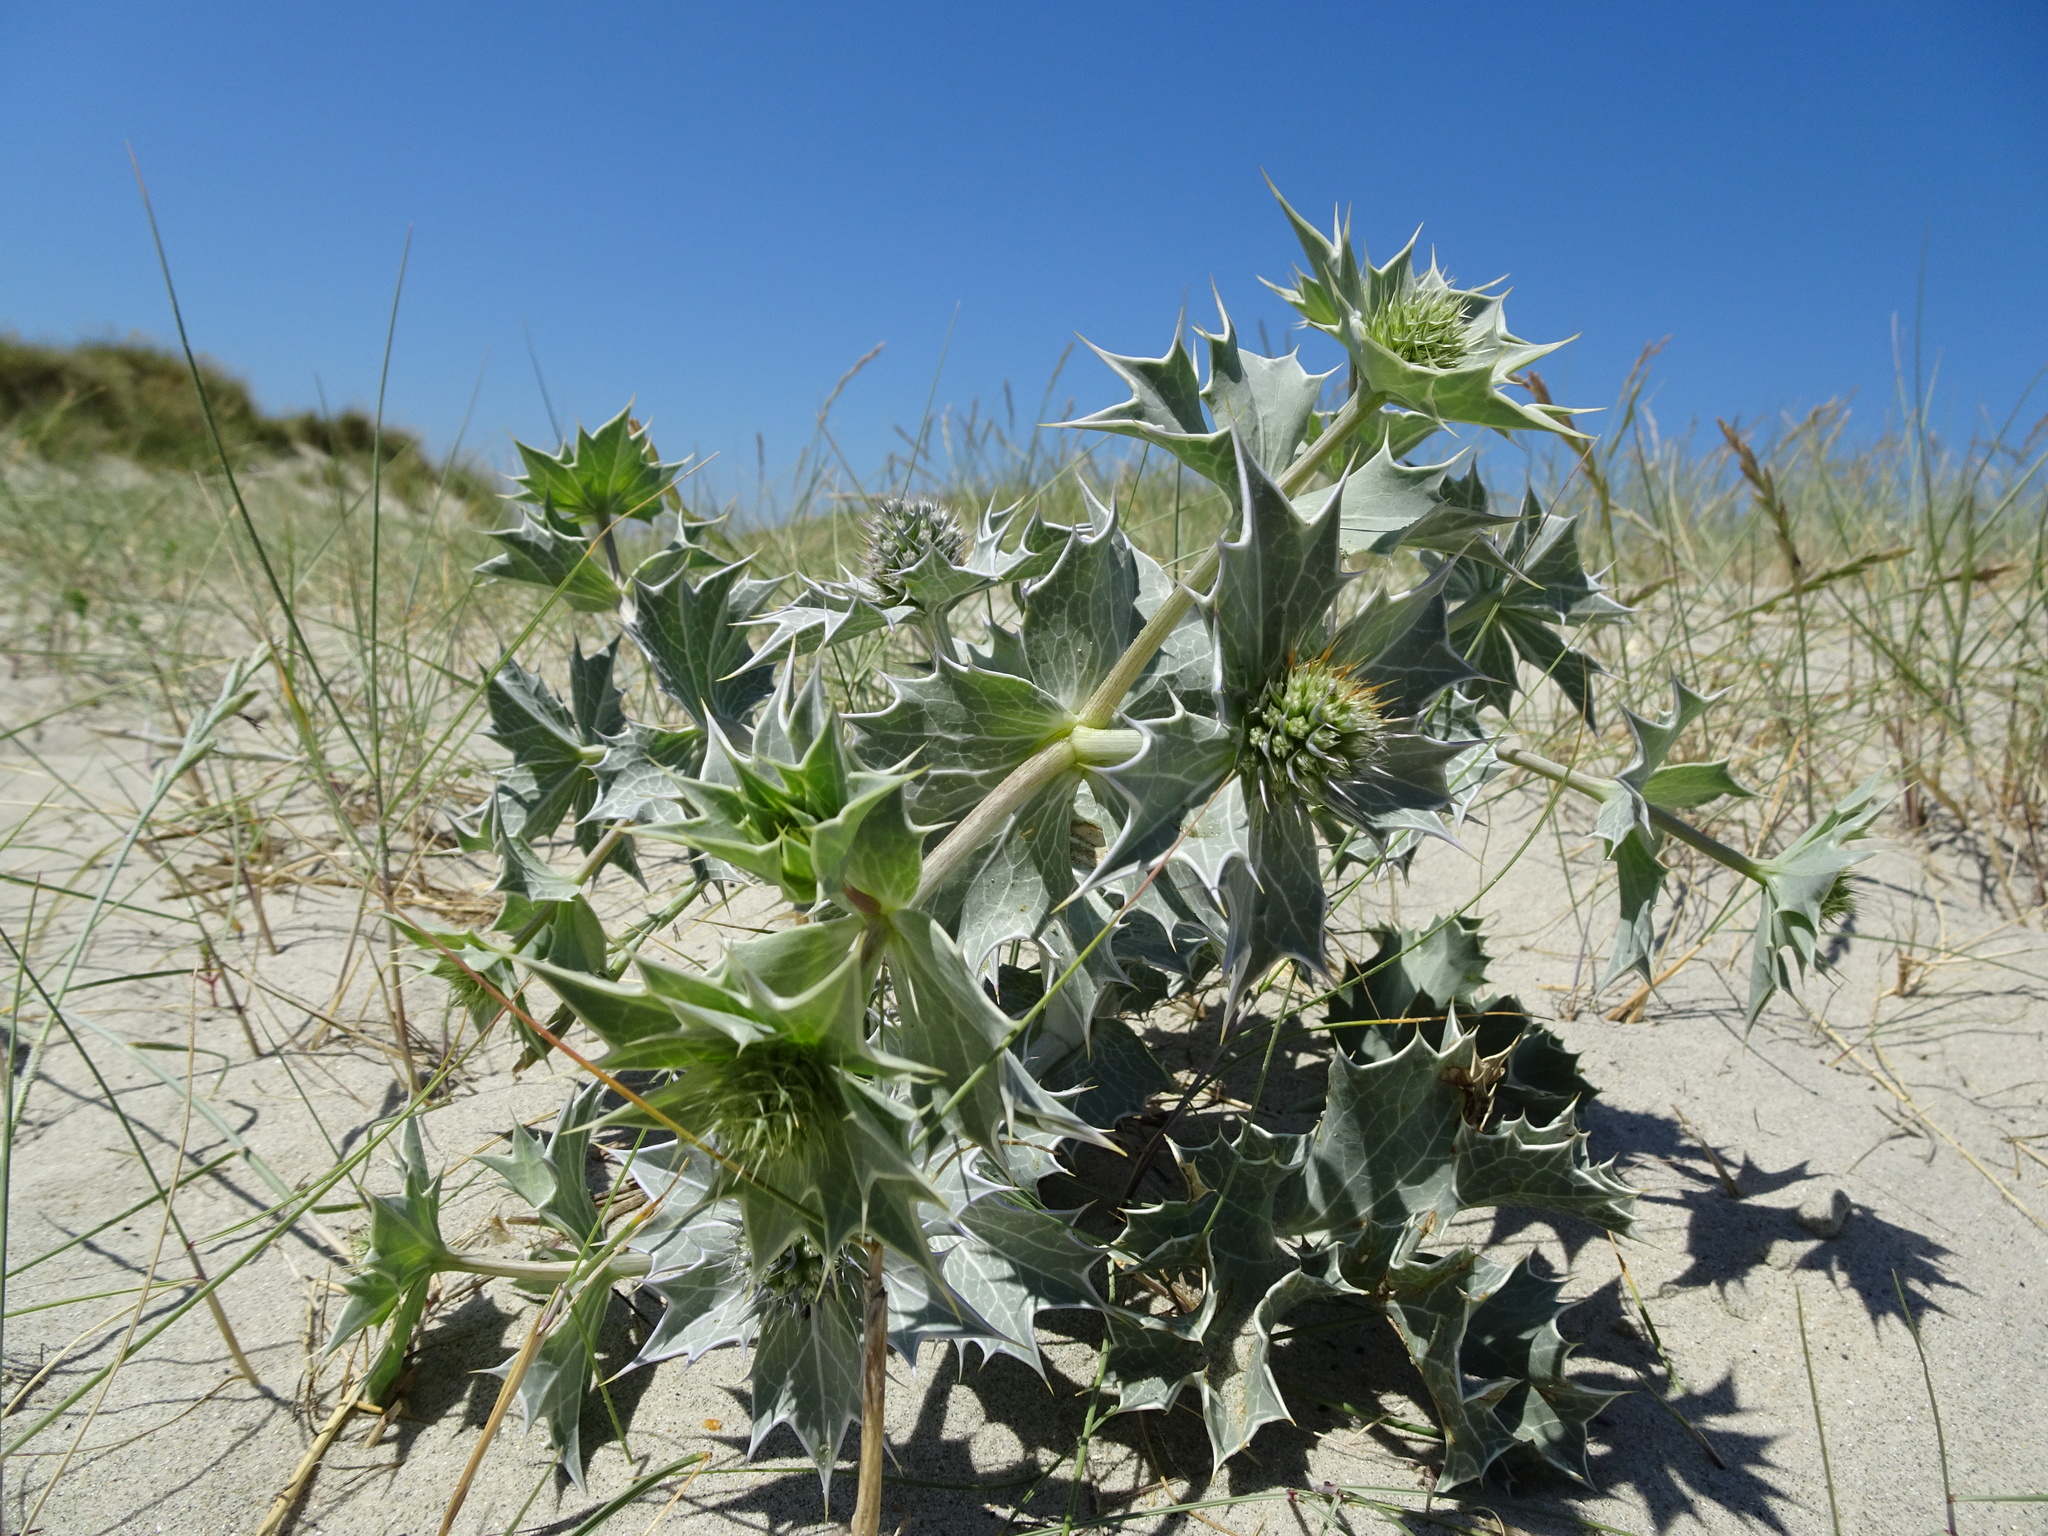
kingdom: Plantae
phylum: Tracheophyta
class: Magnoliopsida
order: Apiales
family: Apiaceae
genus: Eryngium
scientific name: Eryngium maritimum
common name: Sea-holly
